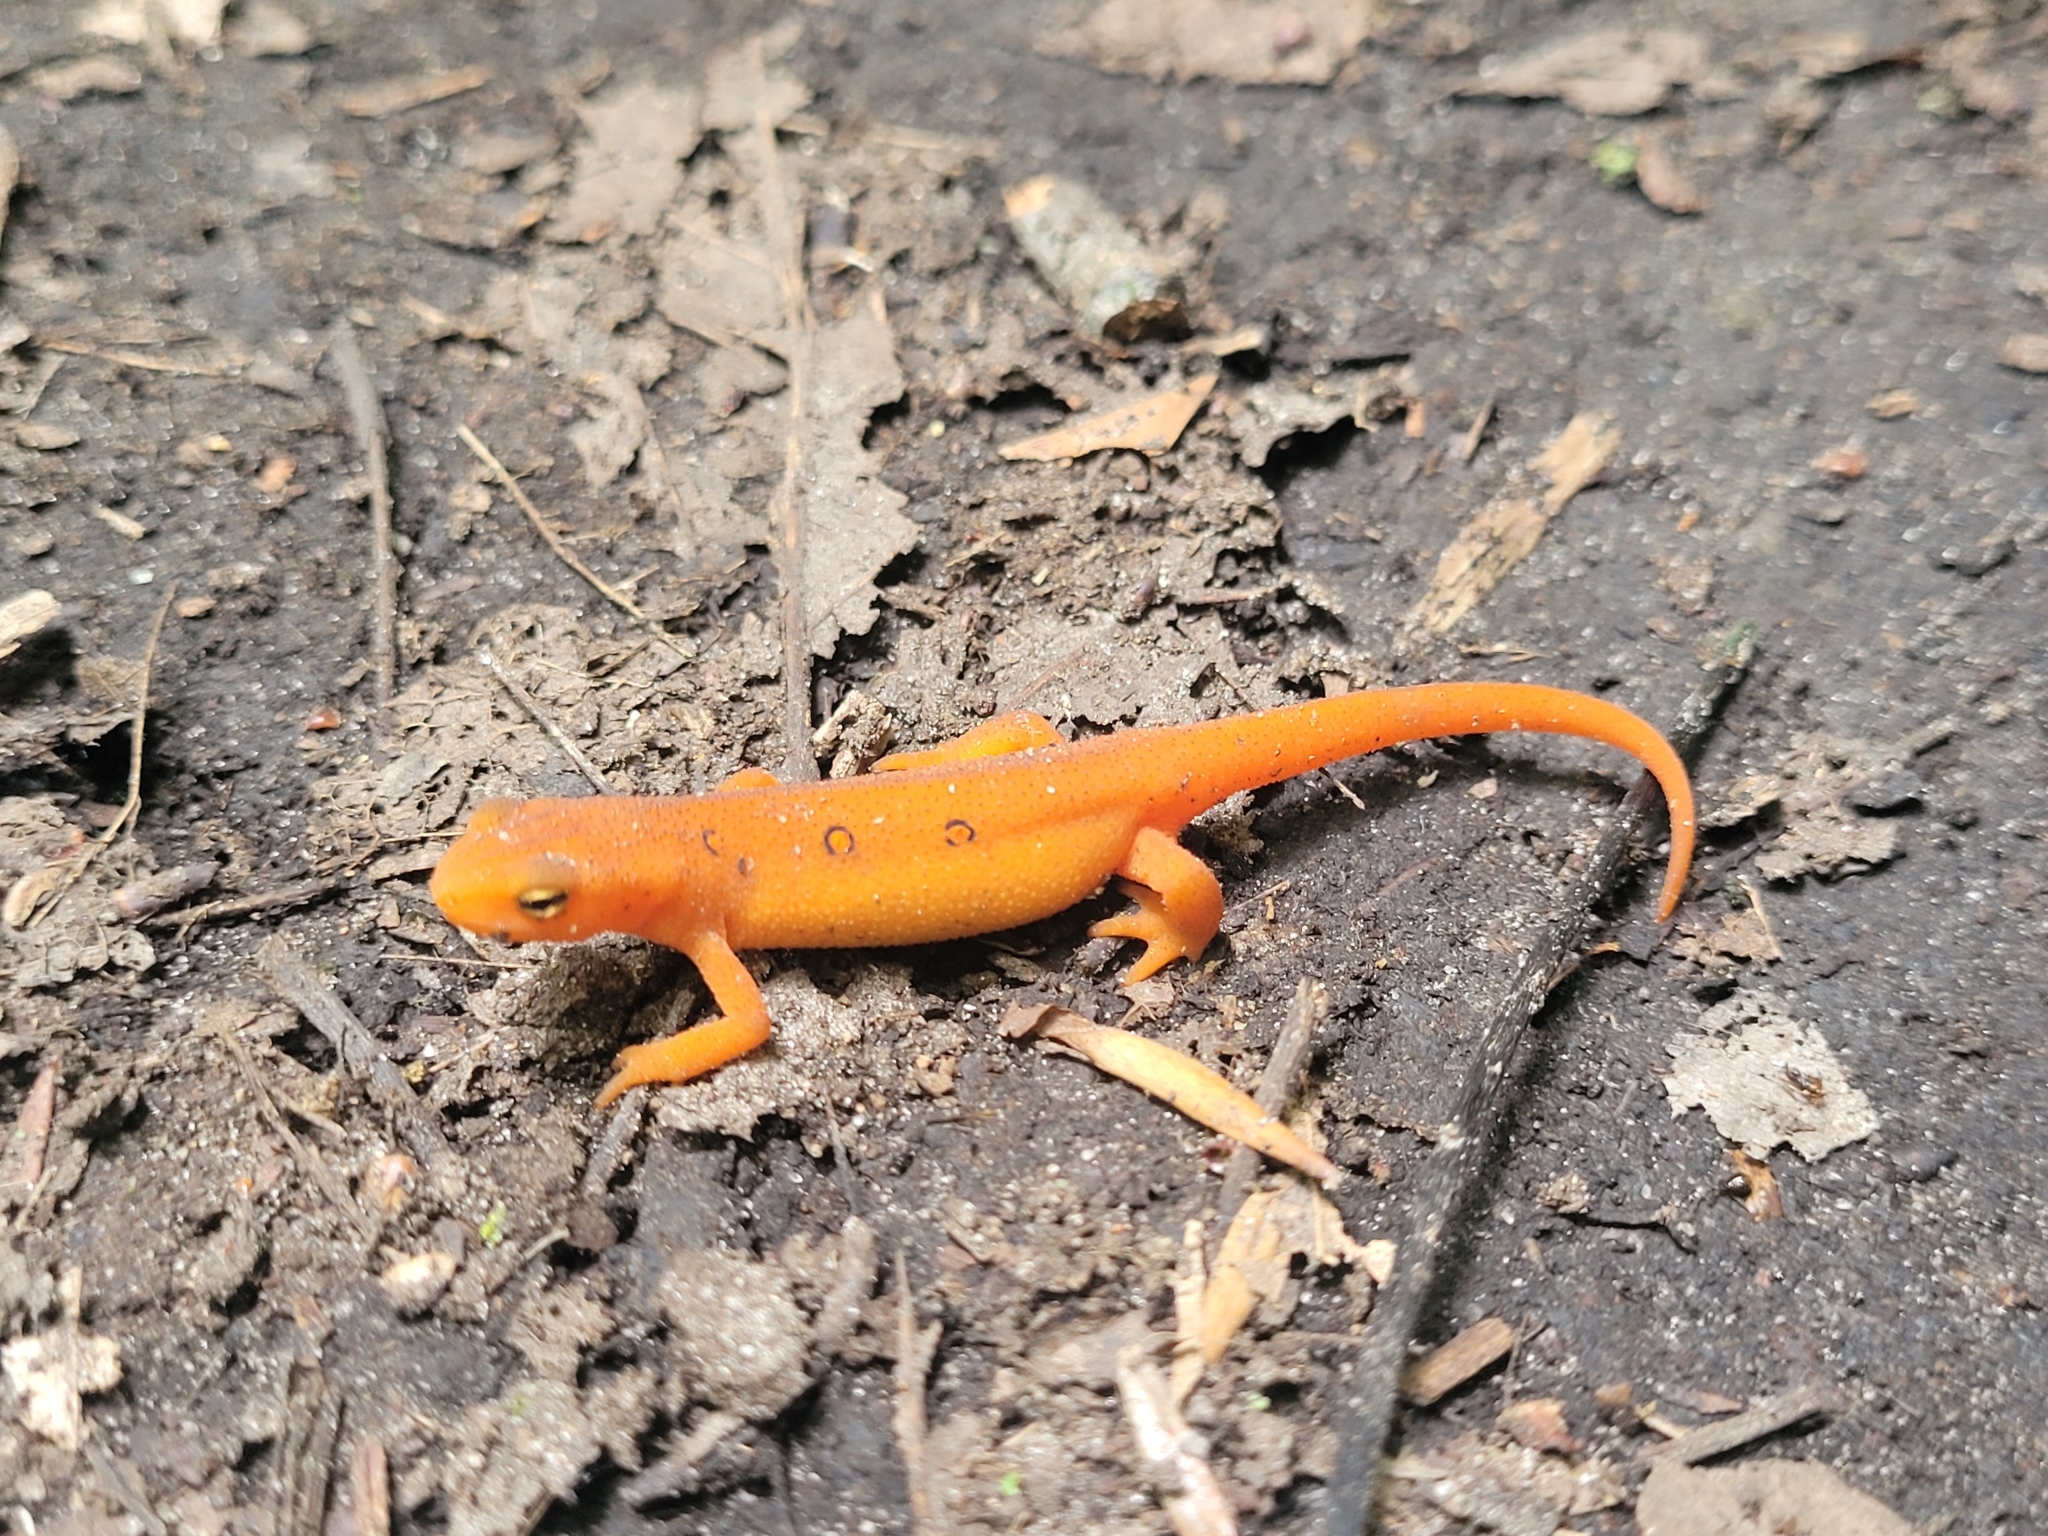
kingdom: Animalia
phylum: Chordata
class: Amphibia
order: Caudata
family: Salamandridae
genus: Notophthalmus
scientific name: Notophthalmus viridescens
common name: Eastern newt
